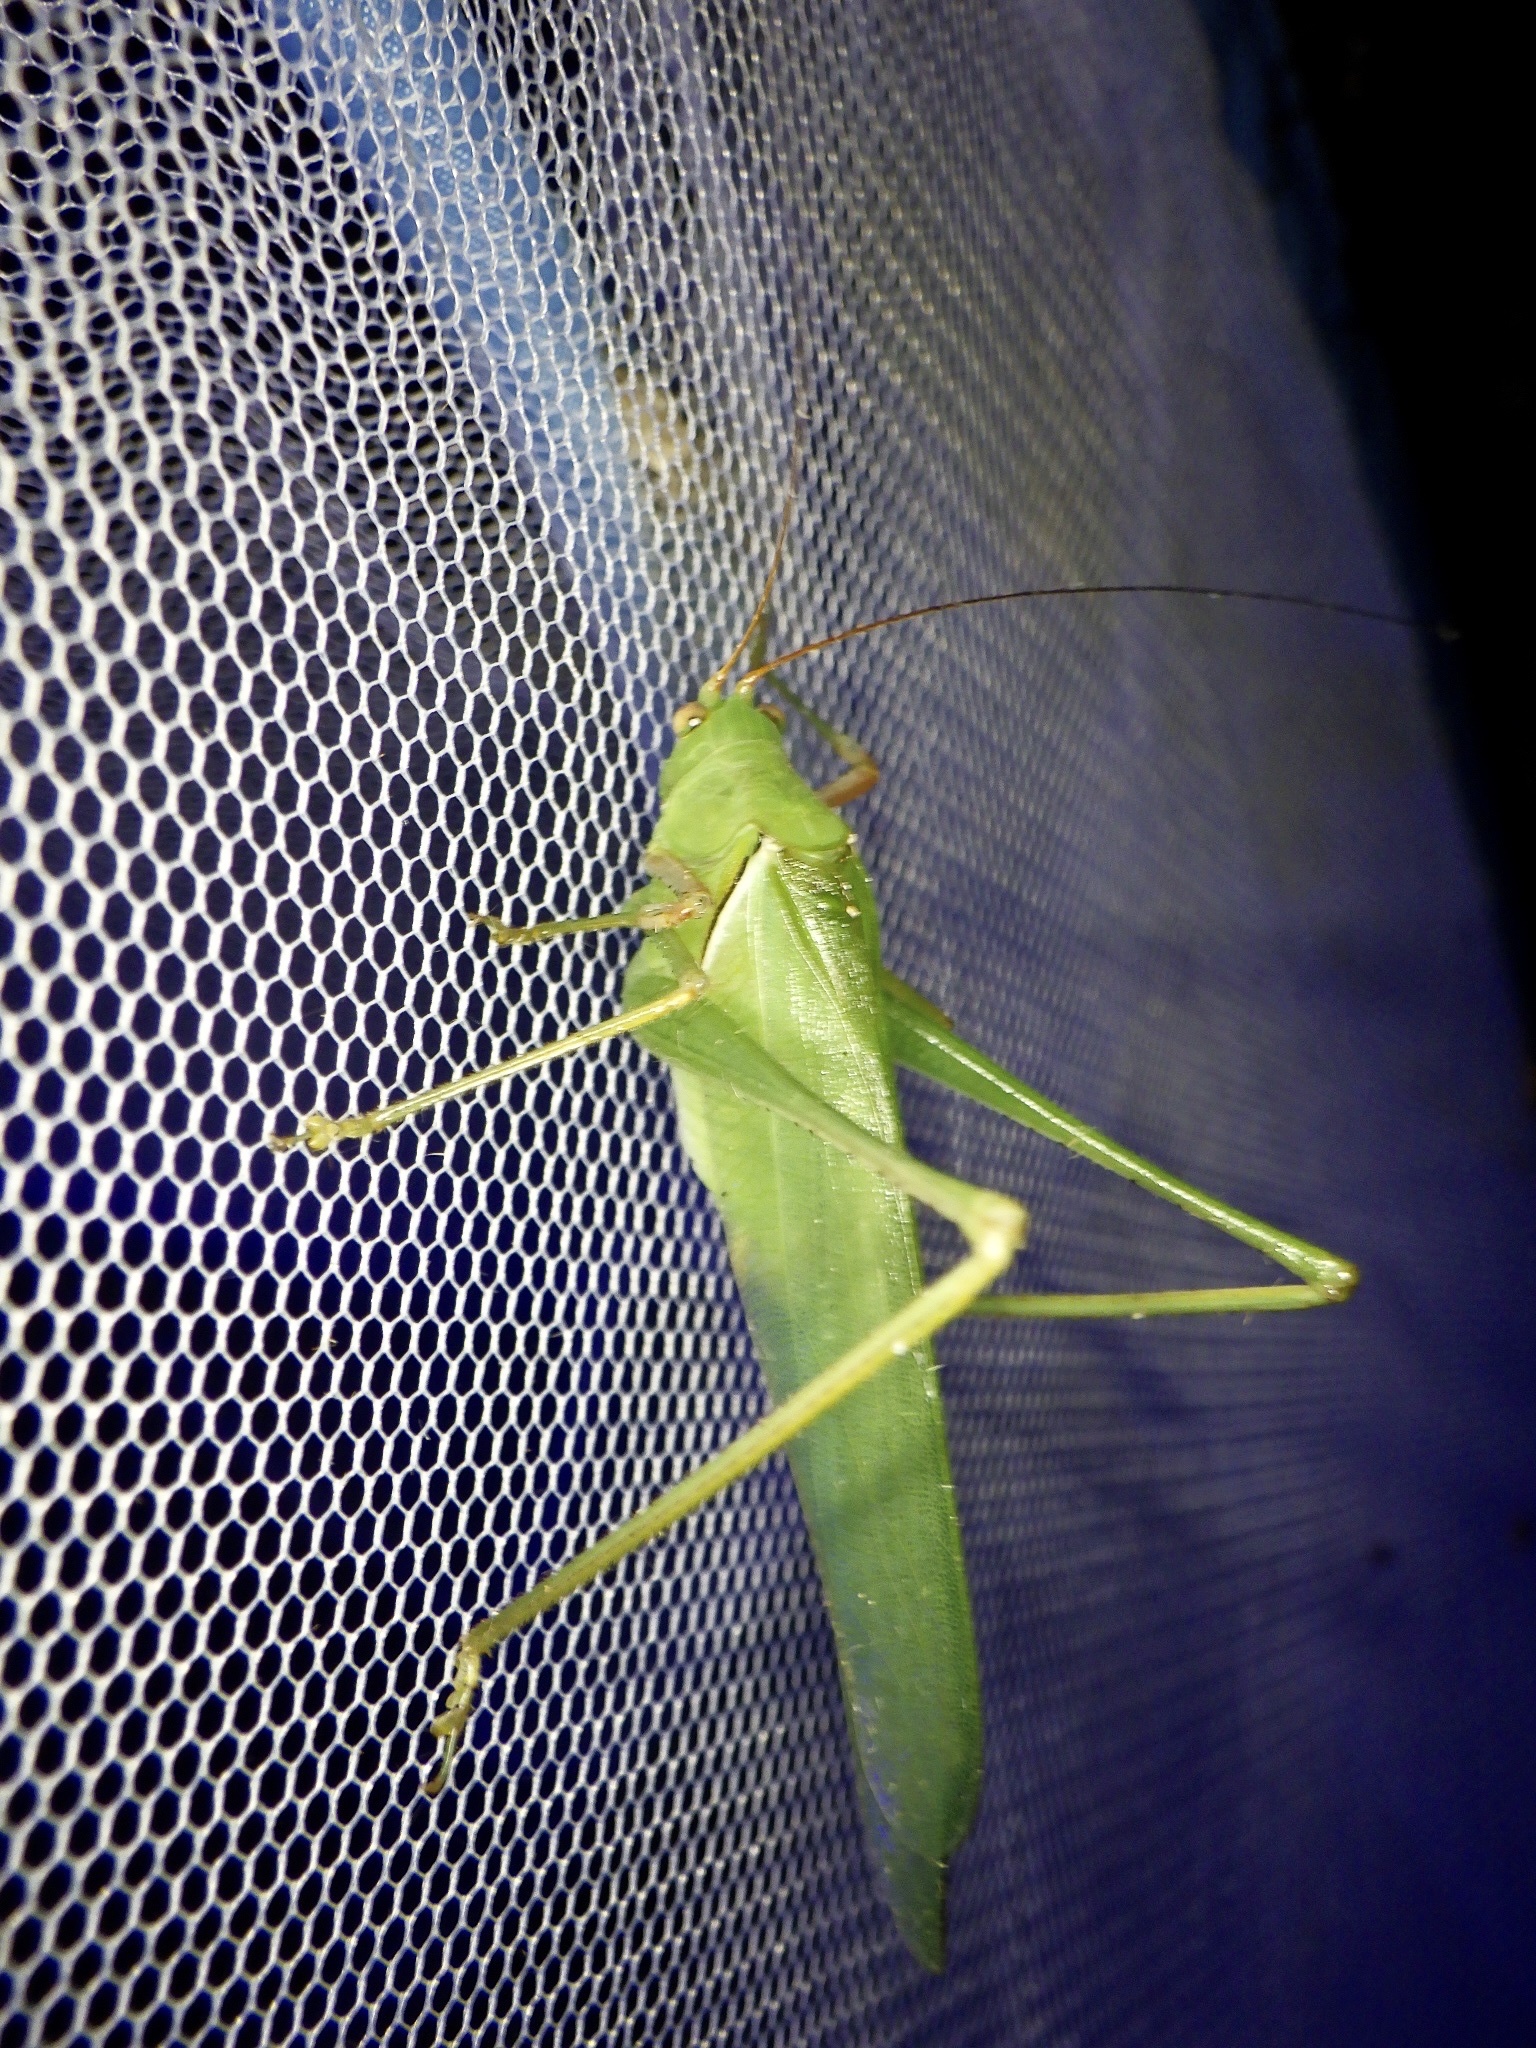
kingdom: Animalia
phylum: Arthropoda
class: Insecta
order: Orthoptera
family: Tettigoniidae
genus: Sinochlora
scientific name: Sinochlora longifissa
